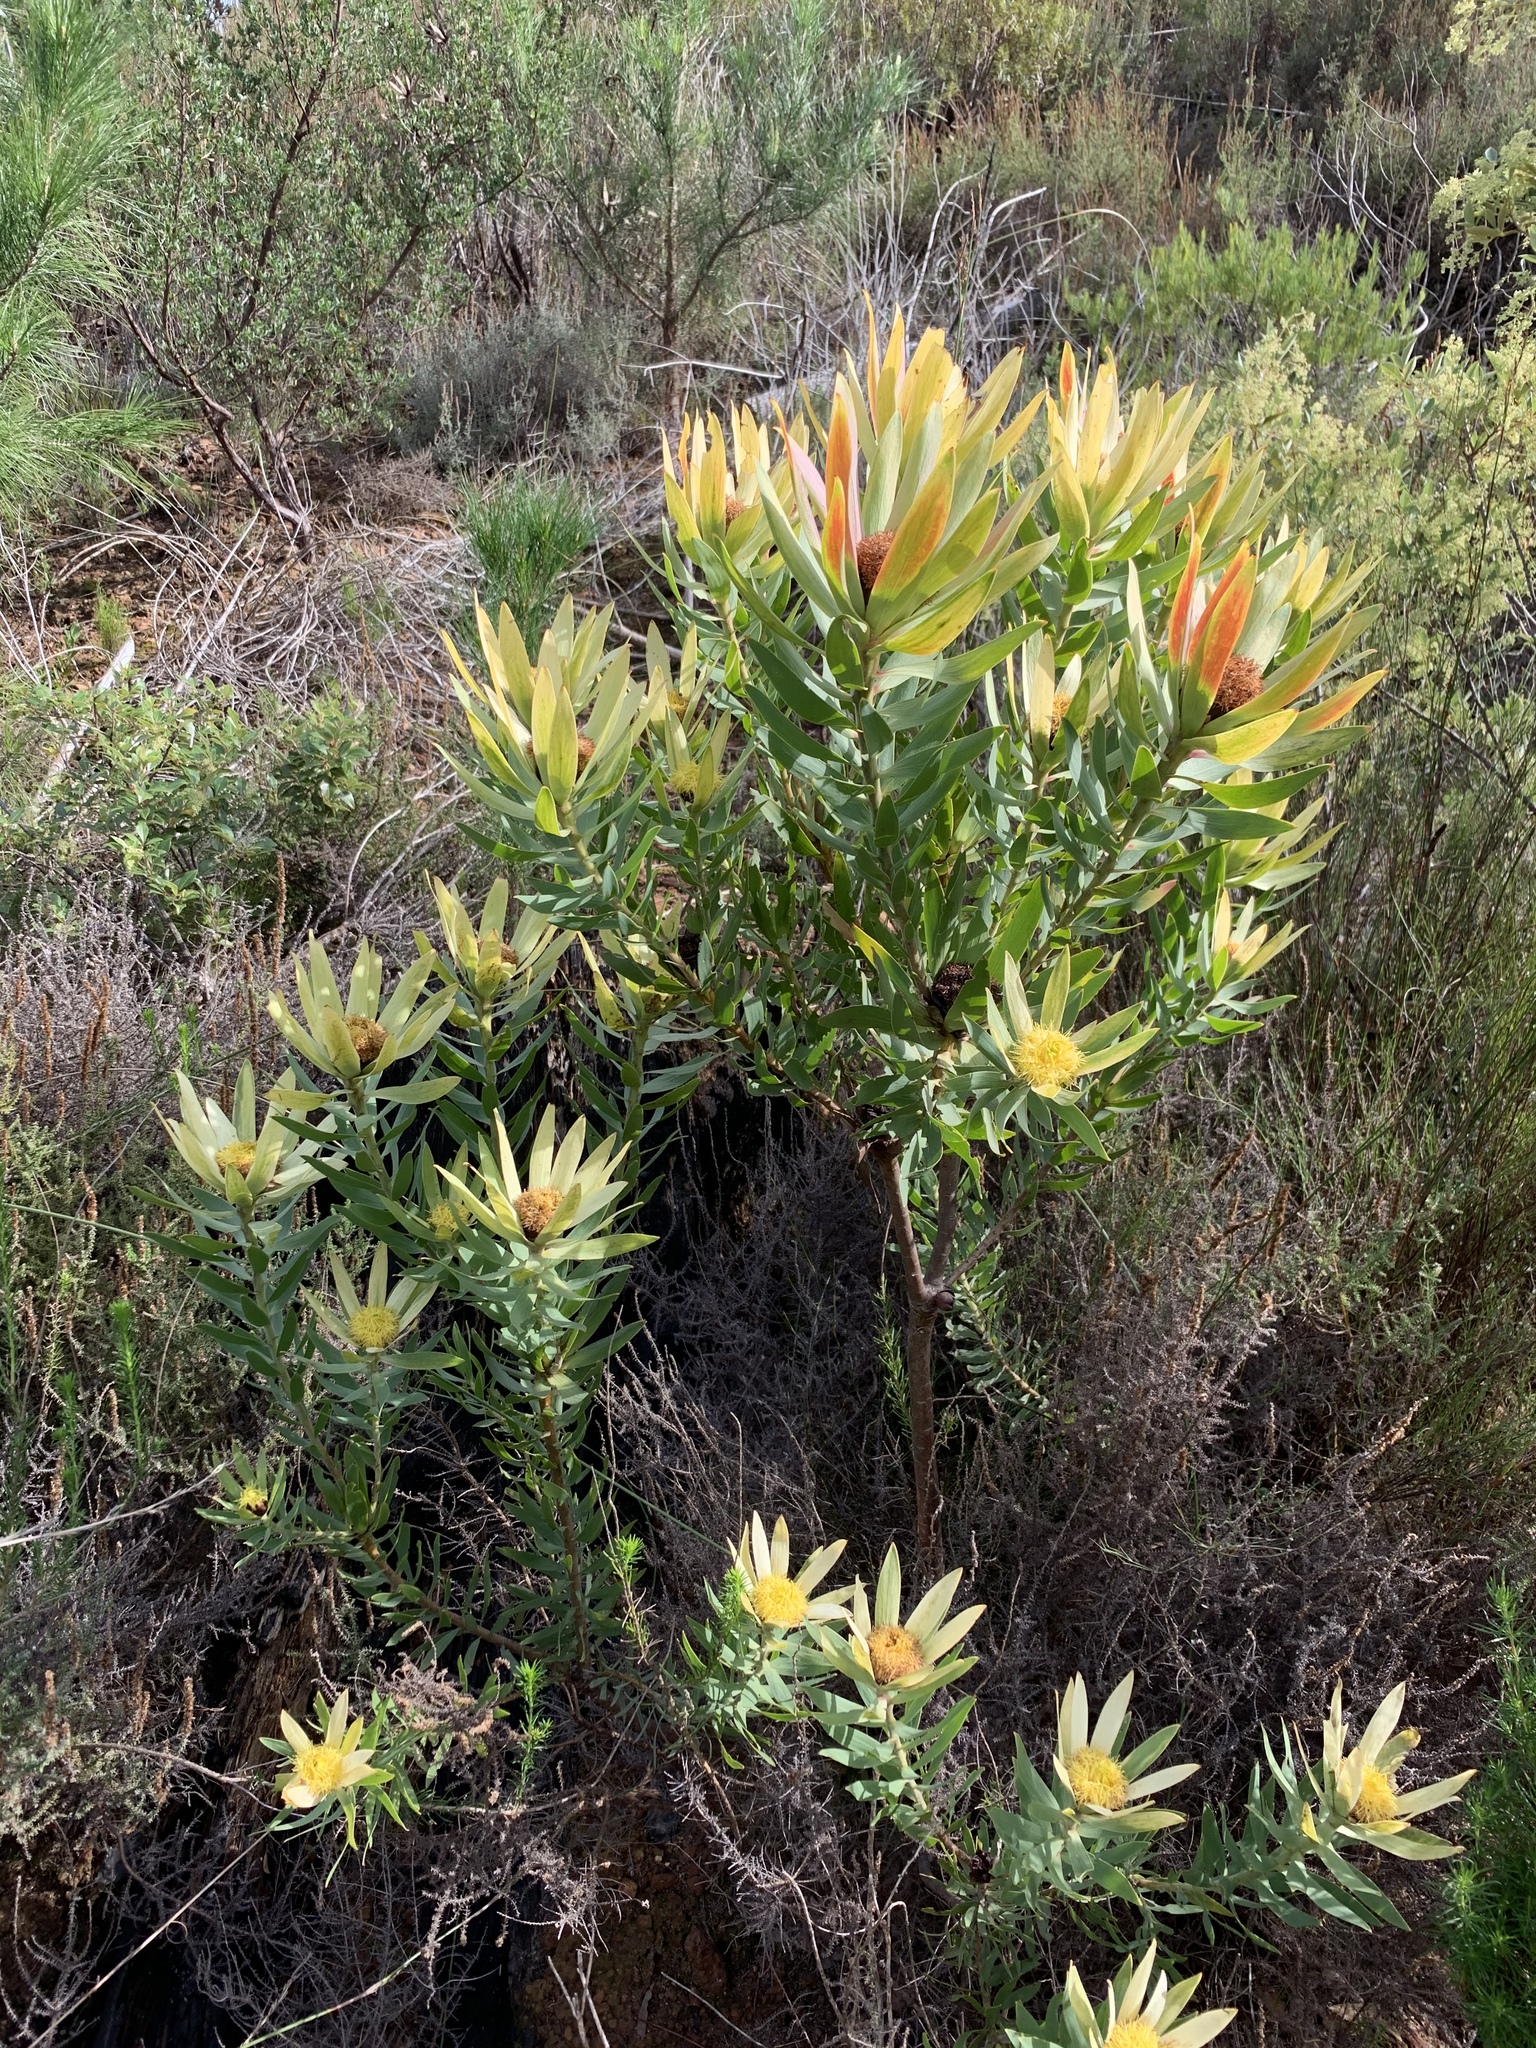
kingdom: Plantae
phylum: Tracheophyta
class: Magnoliopsida
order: Proteales
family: Proteaceae
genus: Leucadendron
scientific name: Leucadendron sessile
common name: Western sunbush
